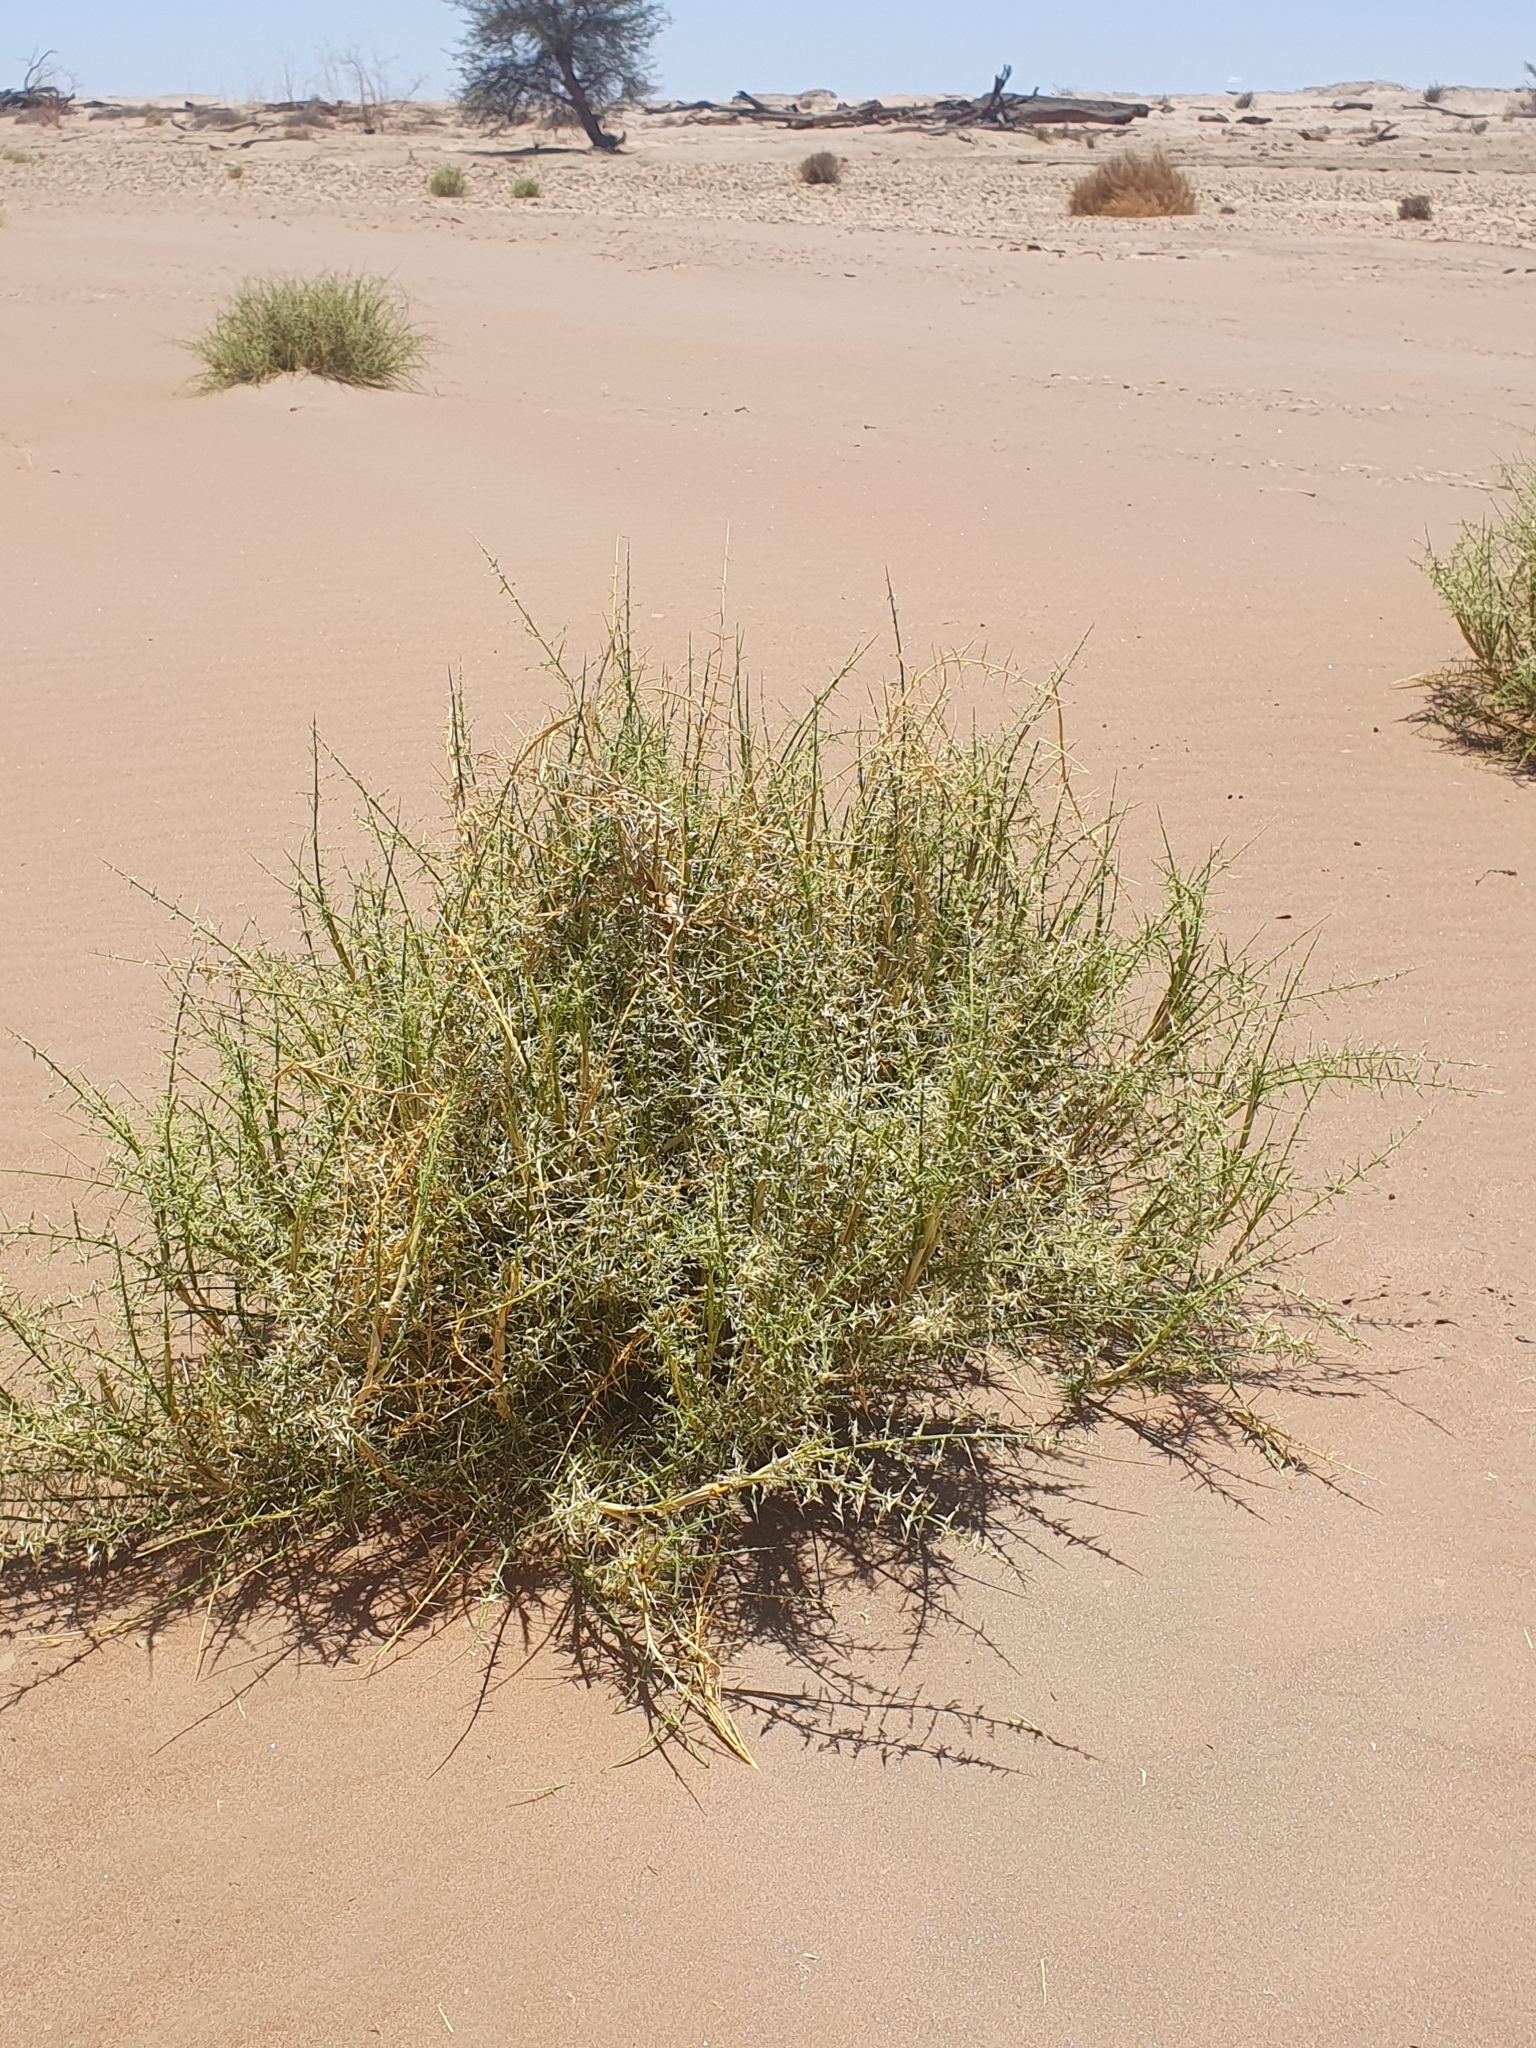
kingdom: Plantae
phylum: Tracheophyta
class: Liliopsida
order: Poales
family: Poaceae
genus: Cladoraphis
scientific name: Cladoraphis spinosa
